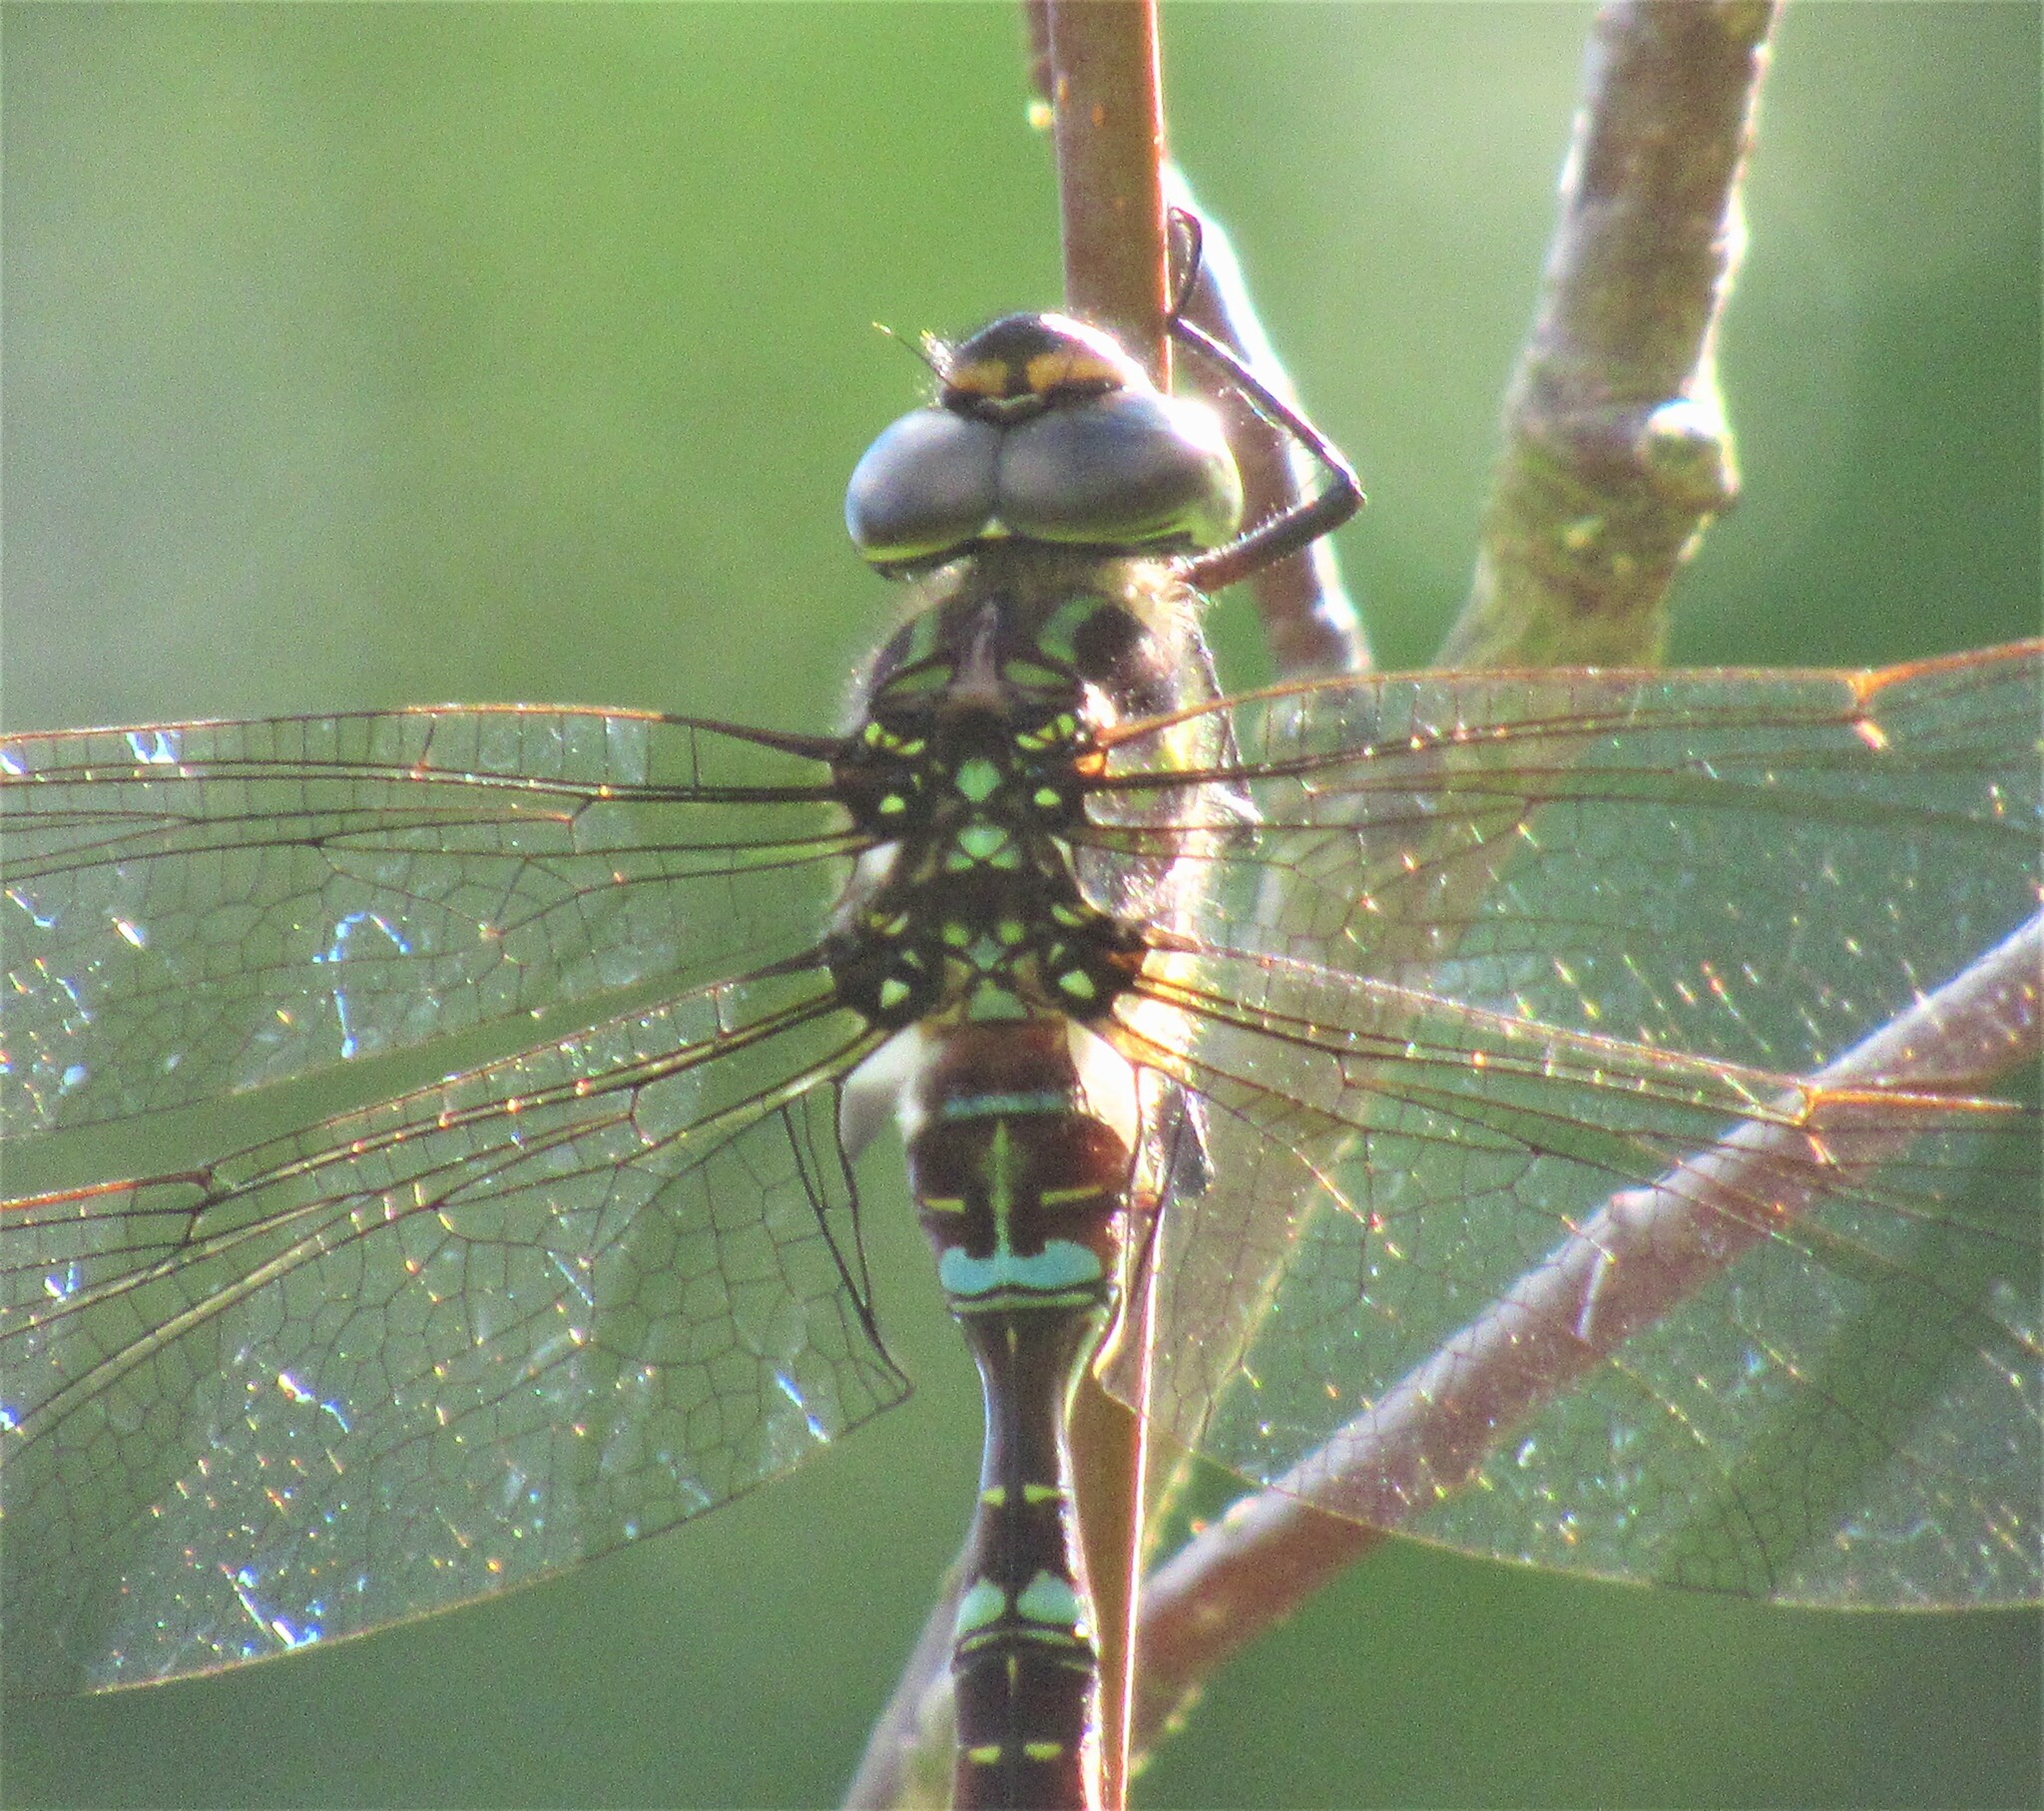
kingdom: Animalia
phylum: Arthropoda
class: Insecta
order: Odonata
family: Aeshnidae
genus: Aeshna
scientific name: Aeshna umbrosa
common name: Shadow darner
